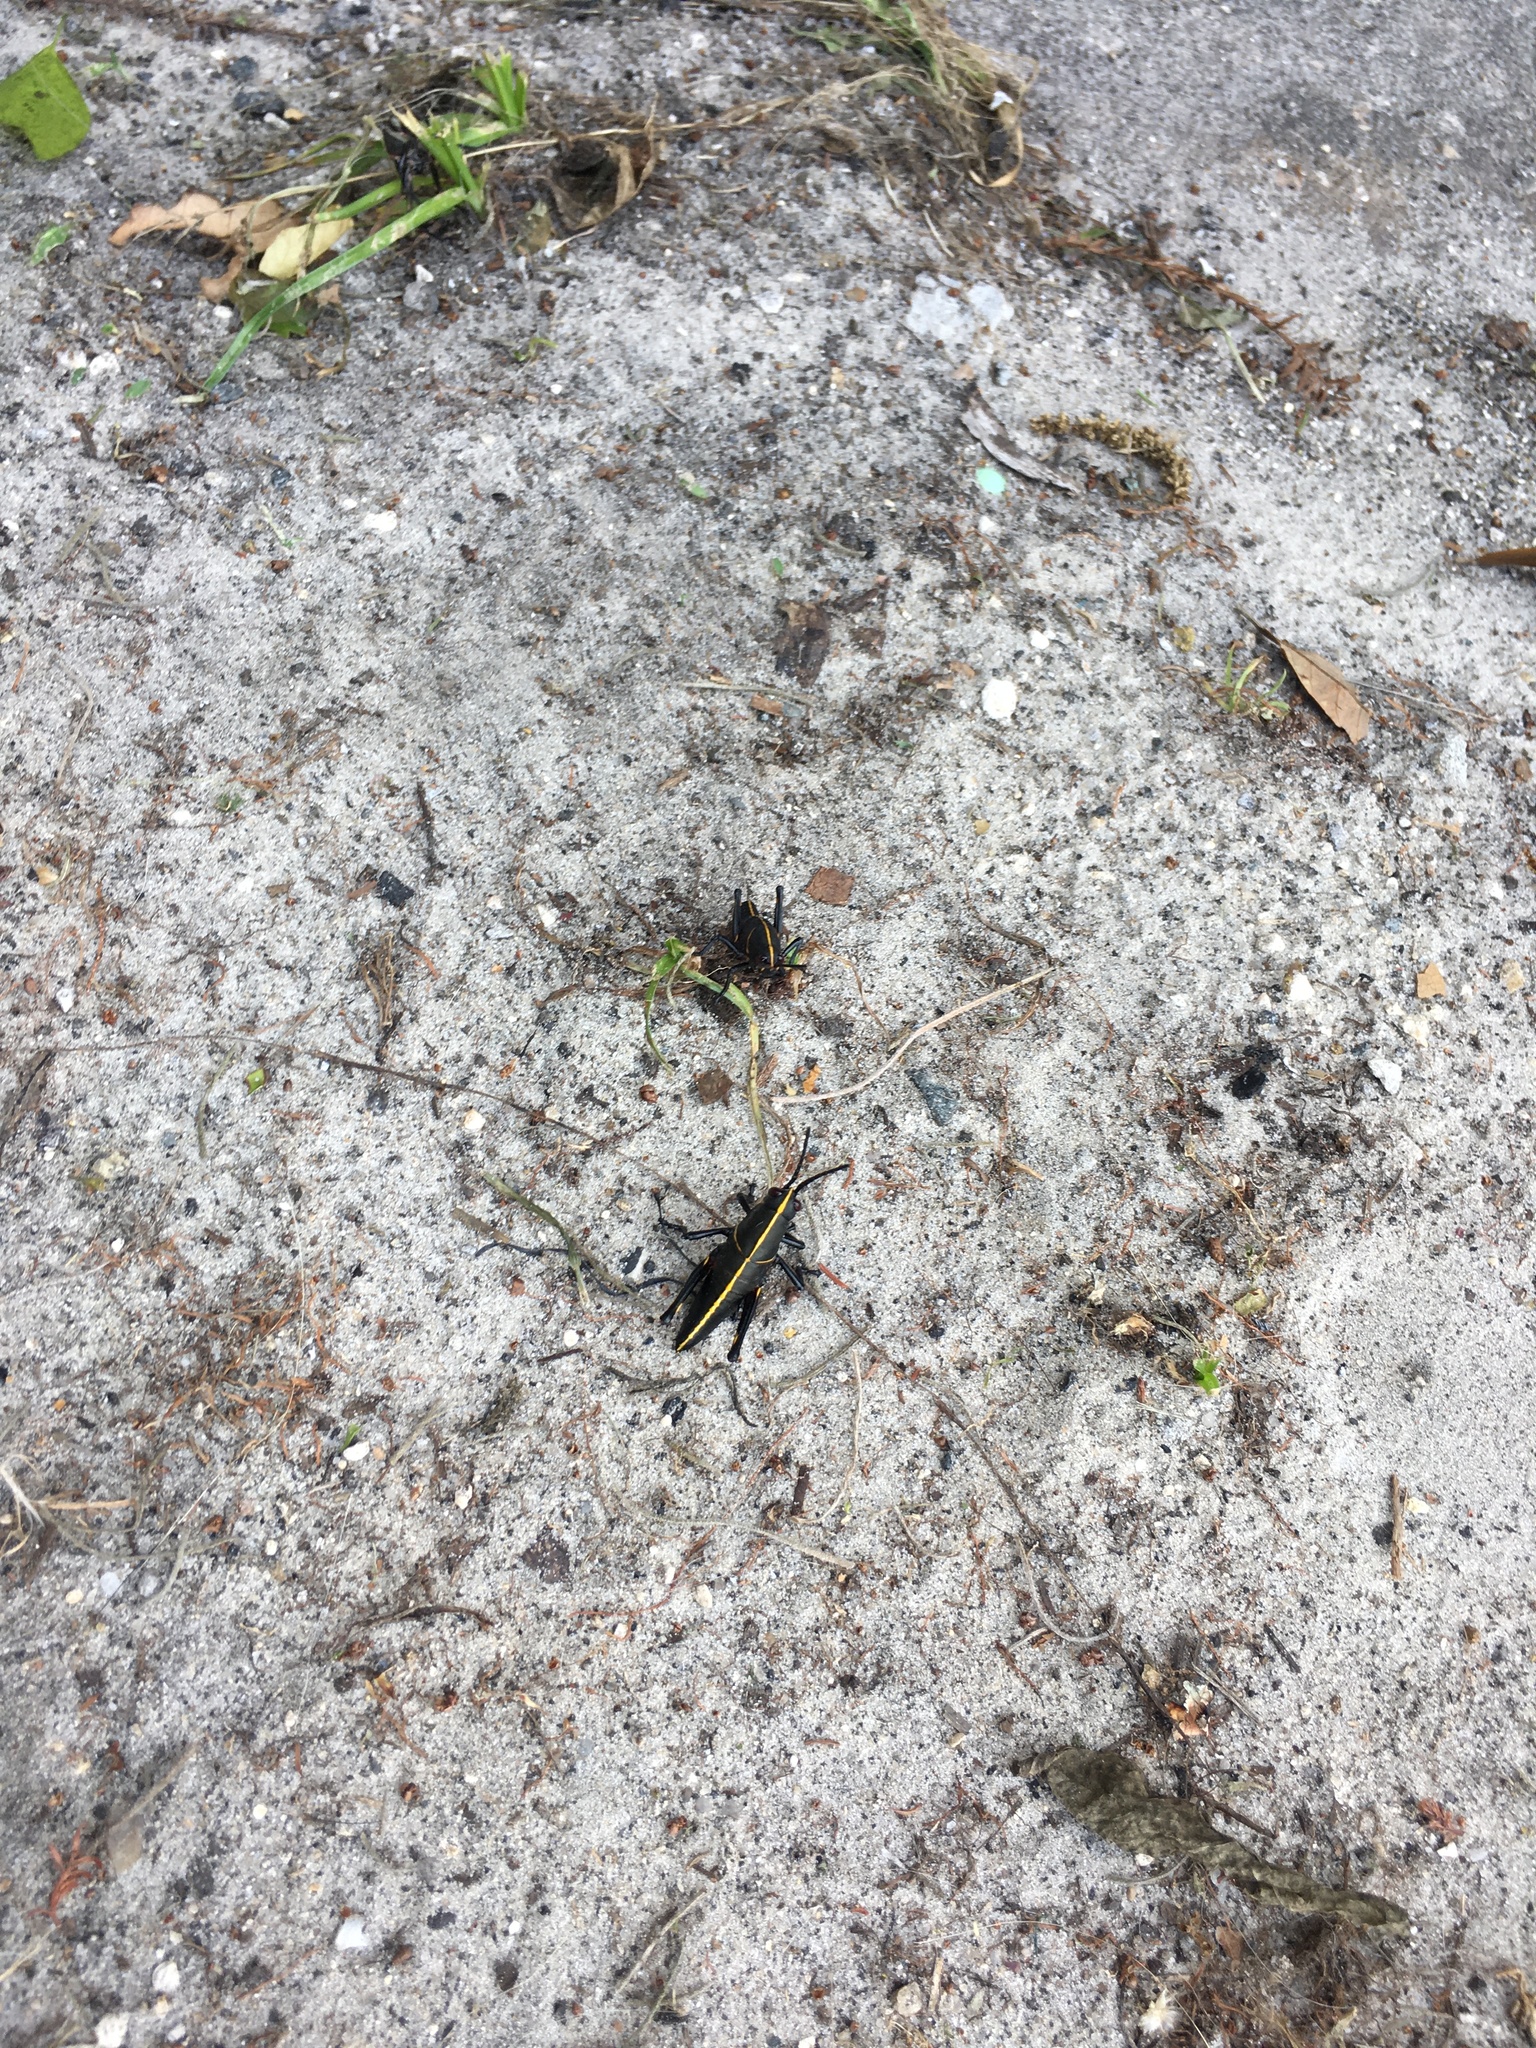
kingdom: Animalia
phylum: Arthropoda
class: Insecta
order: Orthoptera
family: Romaleidae
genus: Romalea
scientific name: Romalea microptera
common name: Eastern lubber grasshopper
